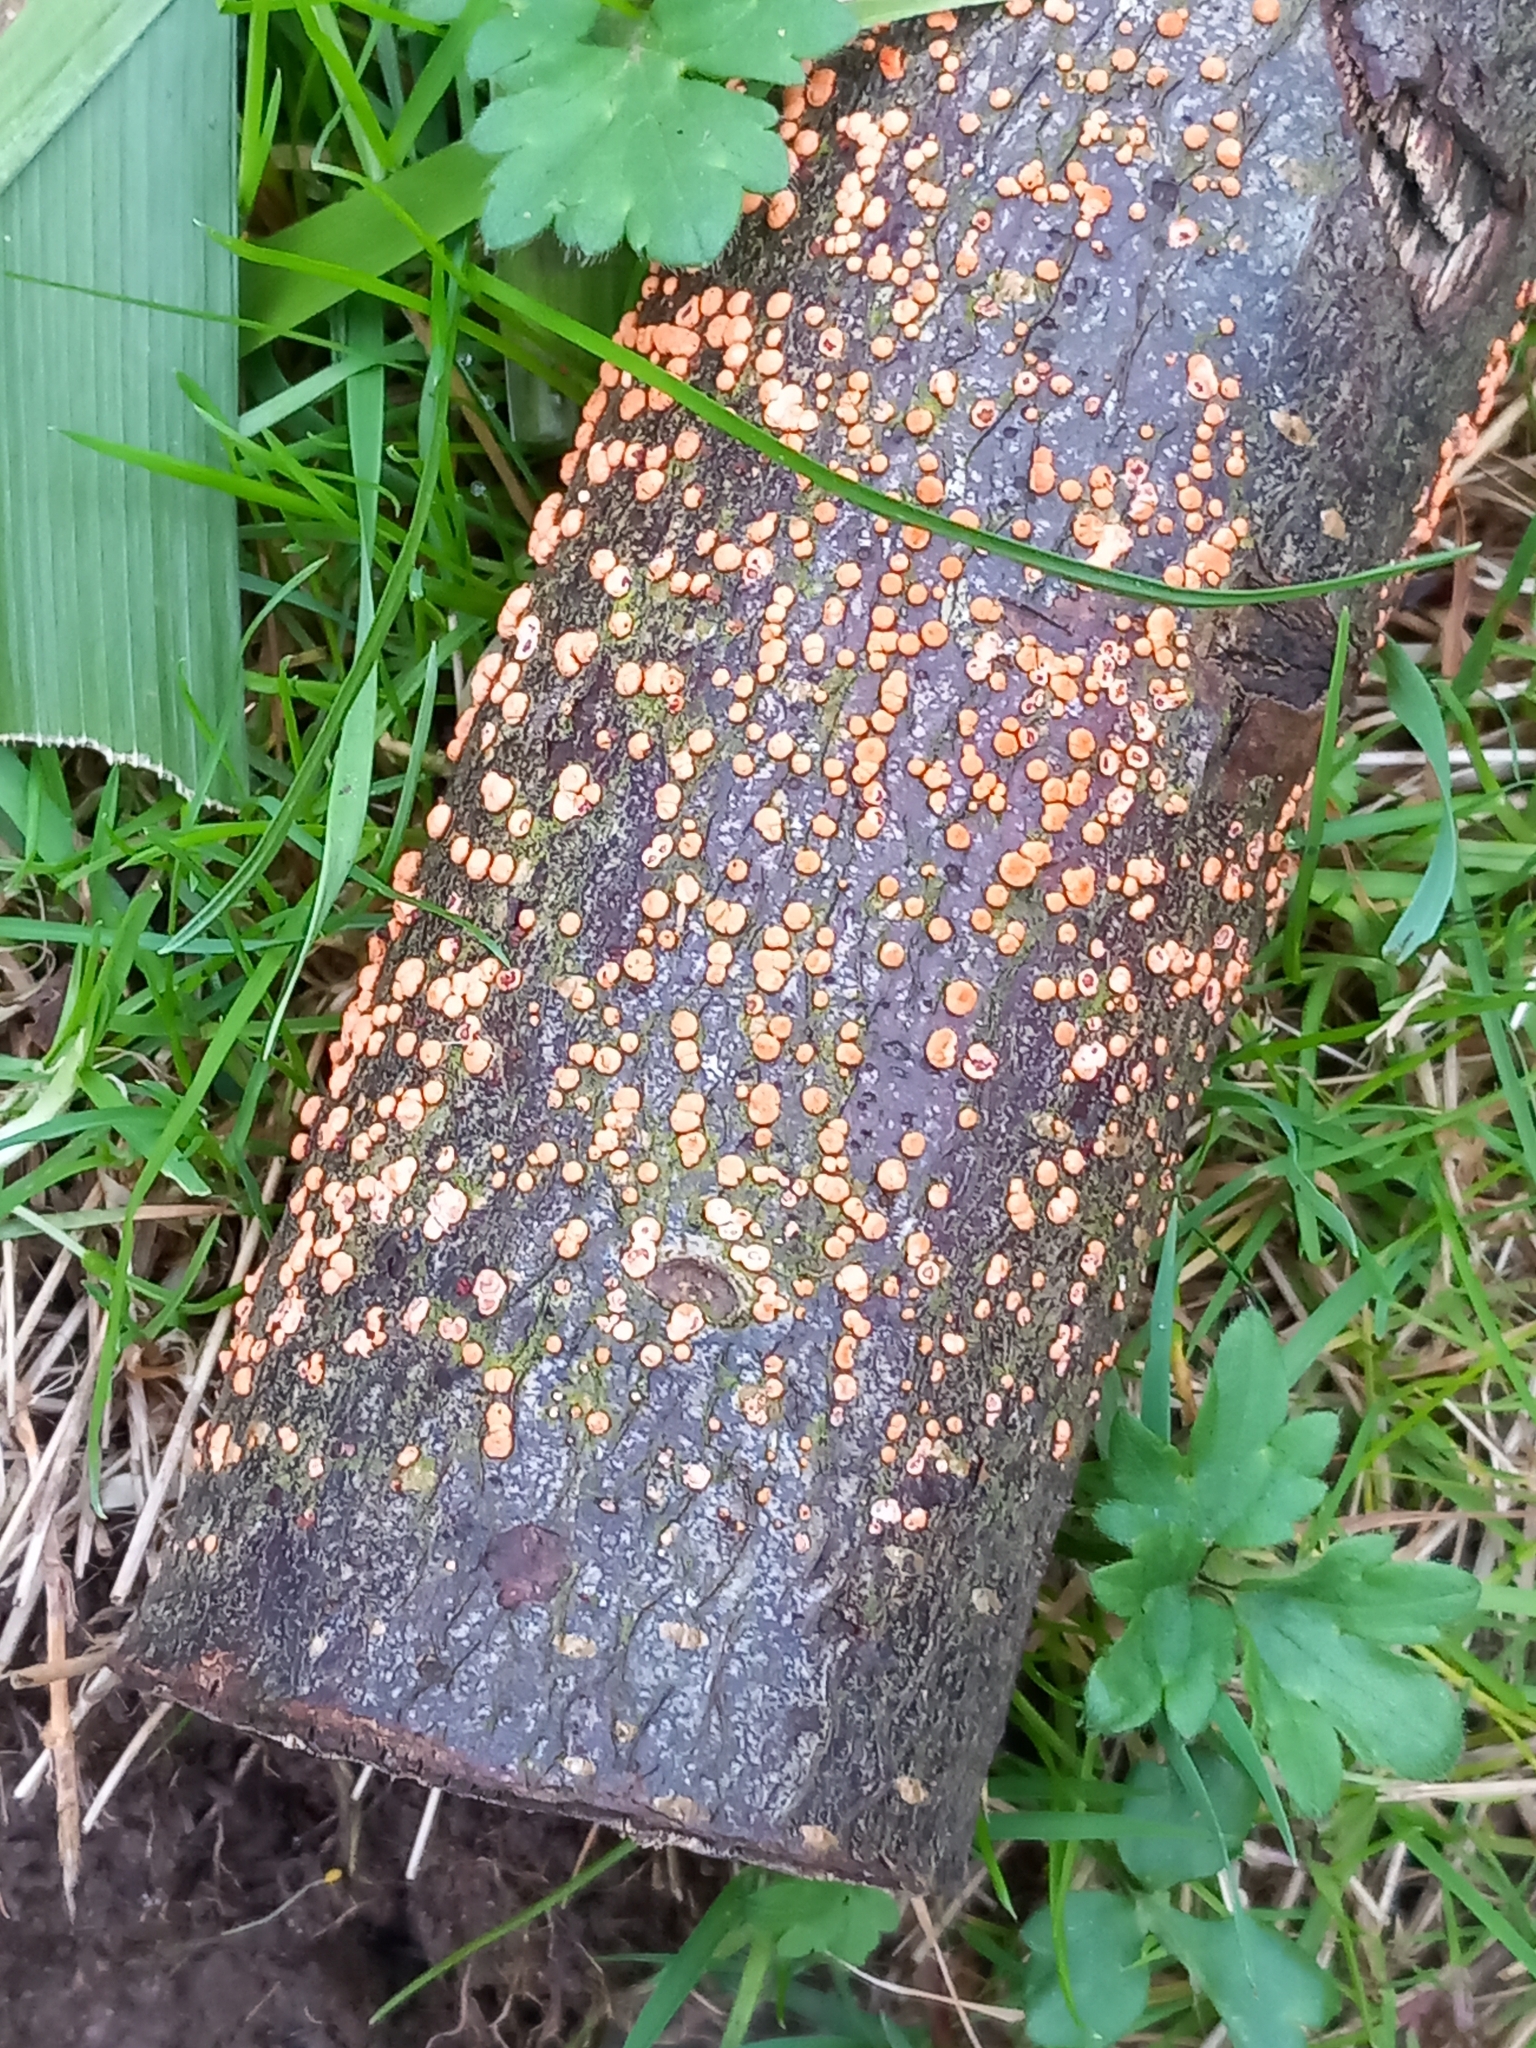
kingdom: Fungi
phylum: Ascomycota
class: Sordariomycetes
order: Hypocreales
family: Nectriaceae
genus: Nectria
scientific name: Nectria cinnabarina
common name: Coral spot
